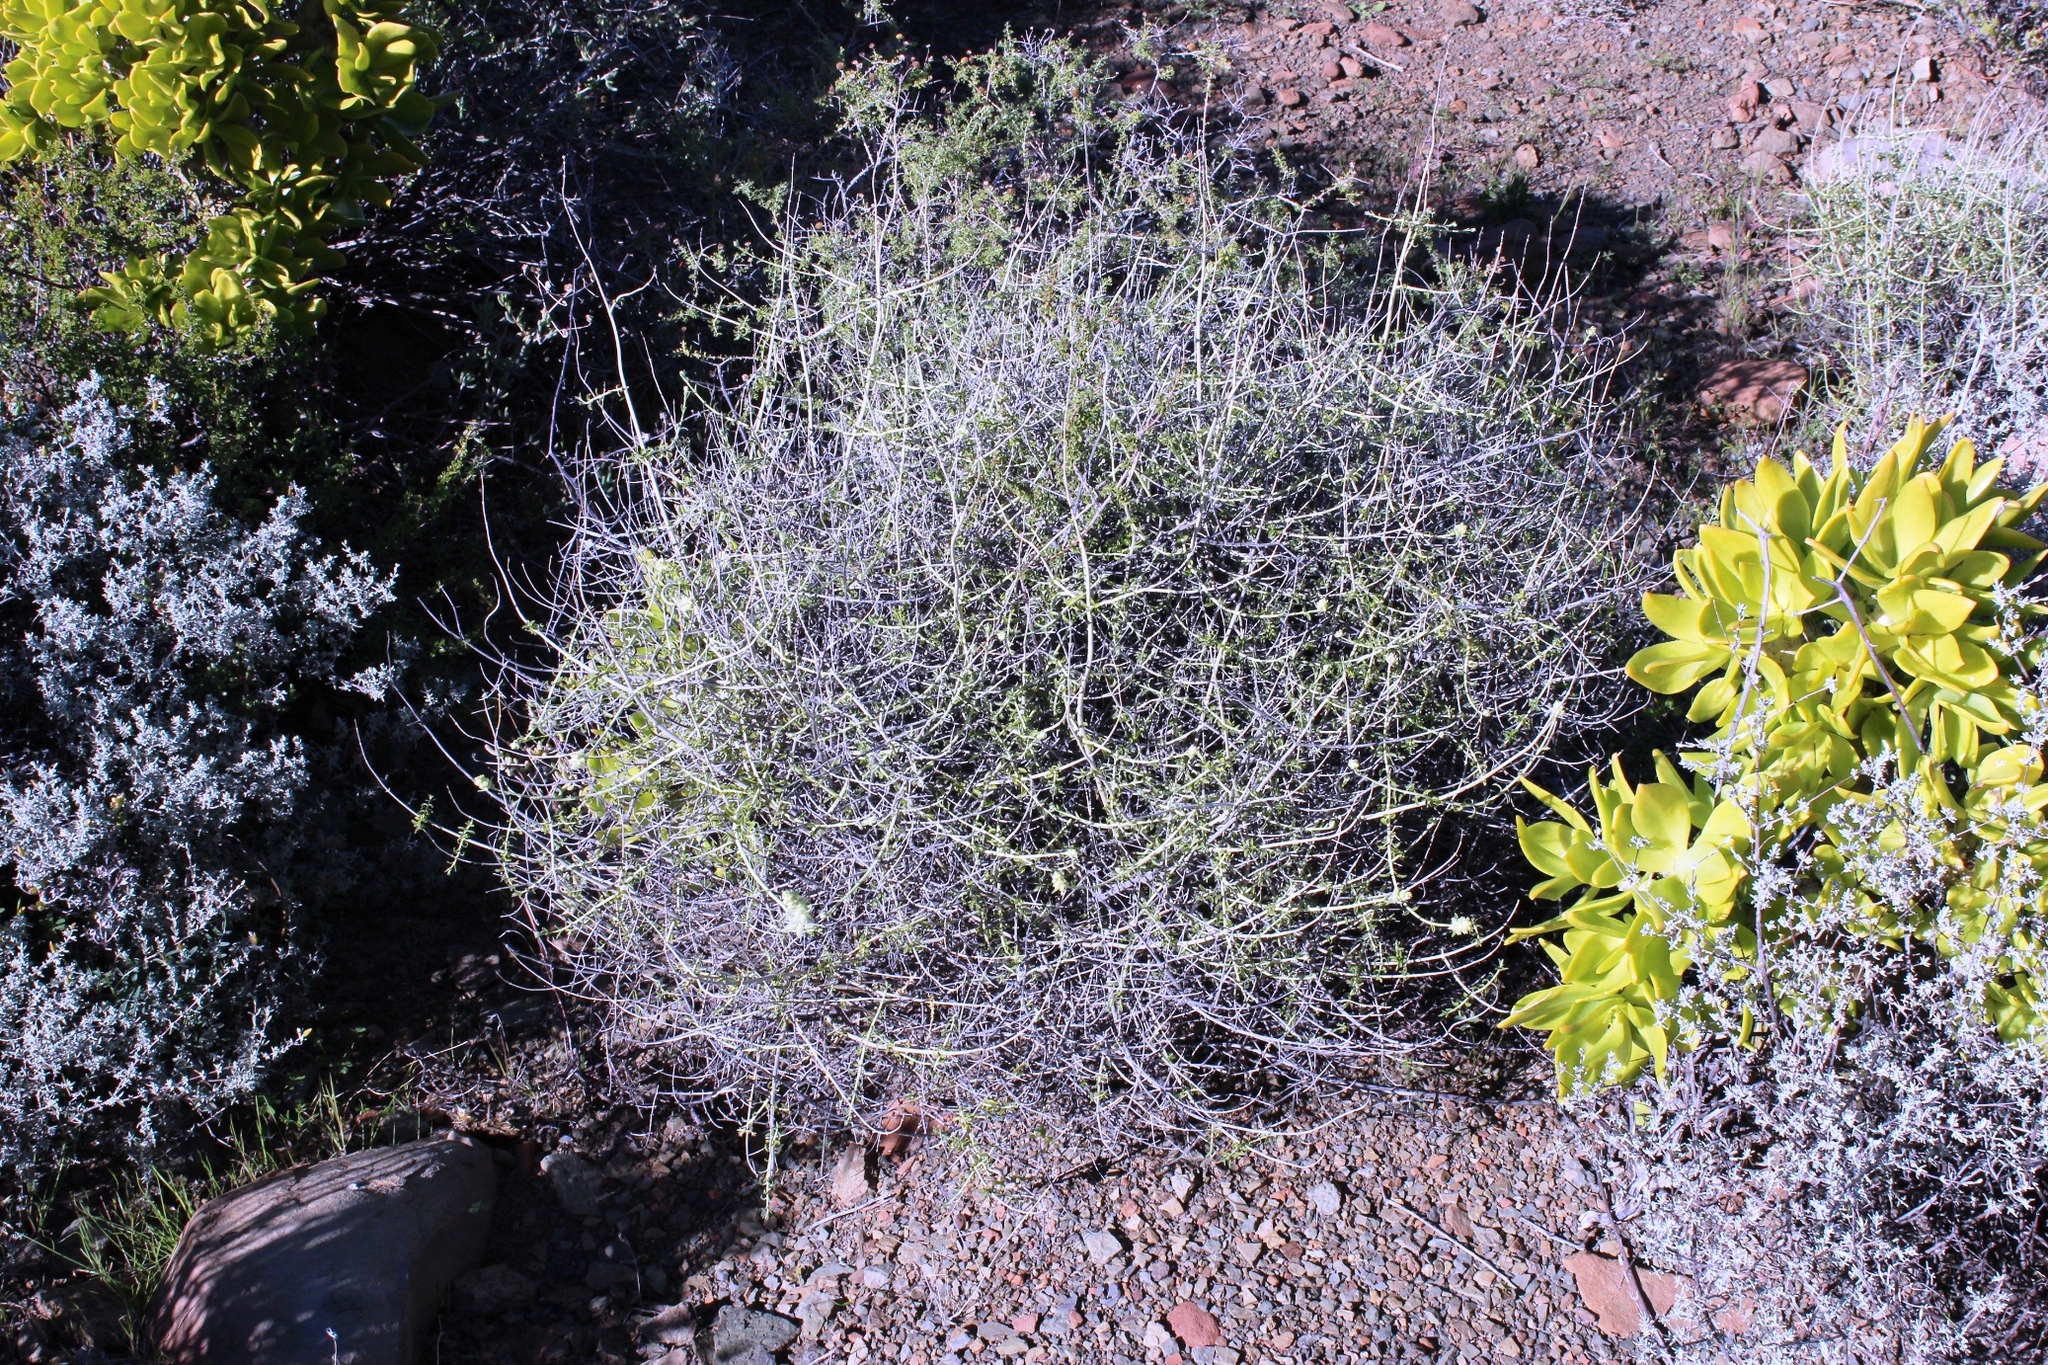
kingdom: Plantae
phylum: Tracheophyta
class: Magnoliopsida
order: Lamiales
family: Lamiaceae
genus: Stachys
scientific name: Stachys aurea
